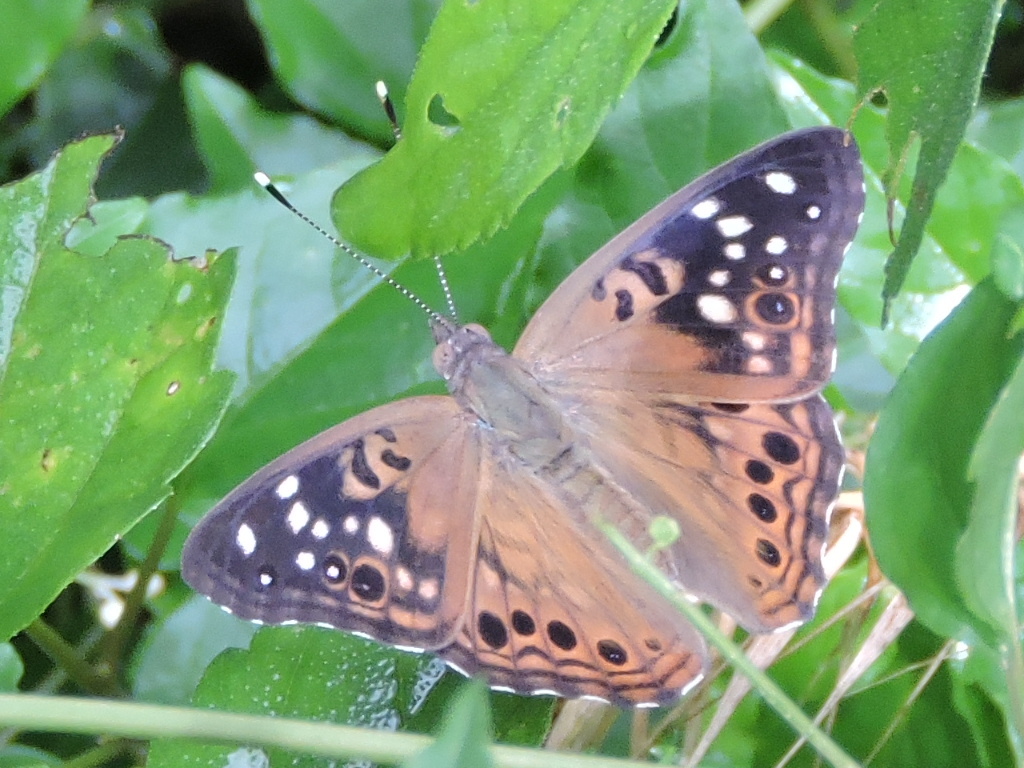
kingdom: Animalia
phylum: Arthropoda
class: Insecta
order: Lepidoptera
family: Nymphalidae
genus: Asterocampa
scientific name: Asterocampa celtis
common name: Hackberry emperor
